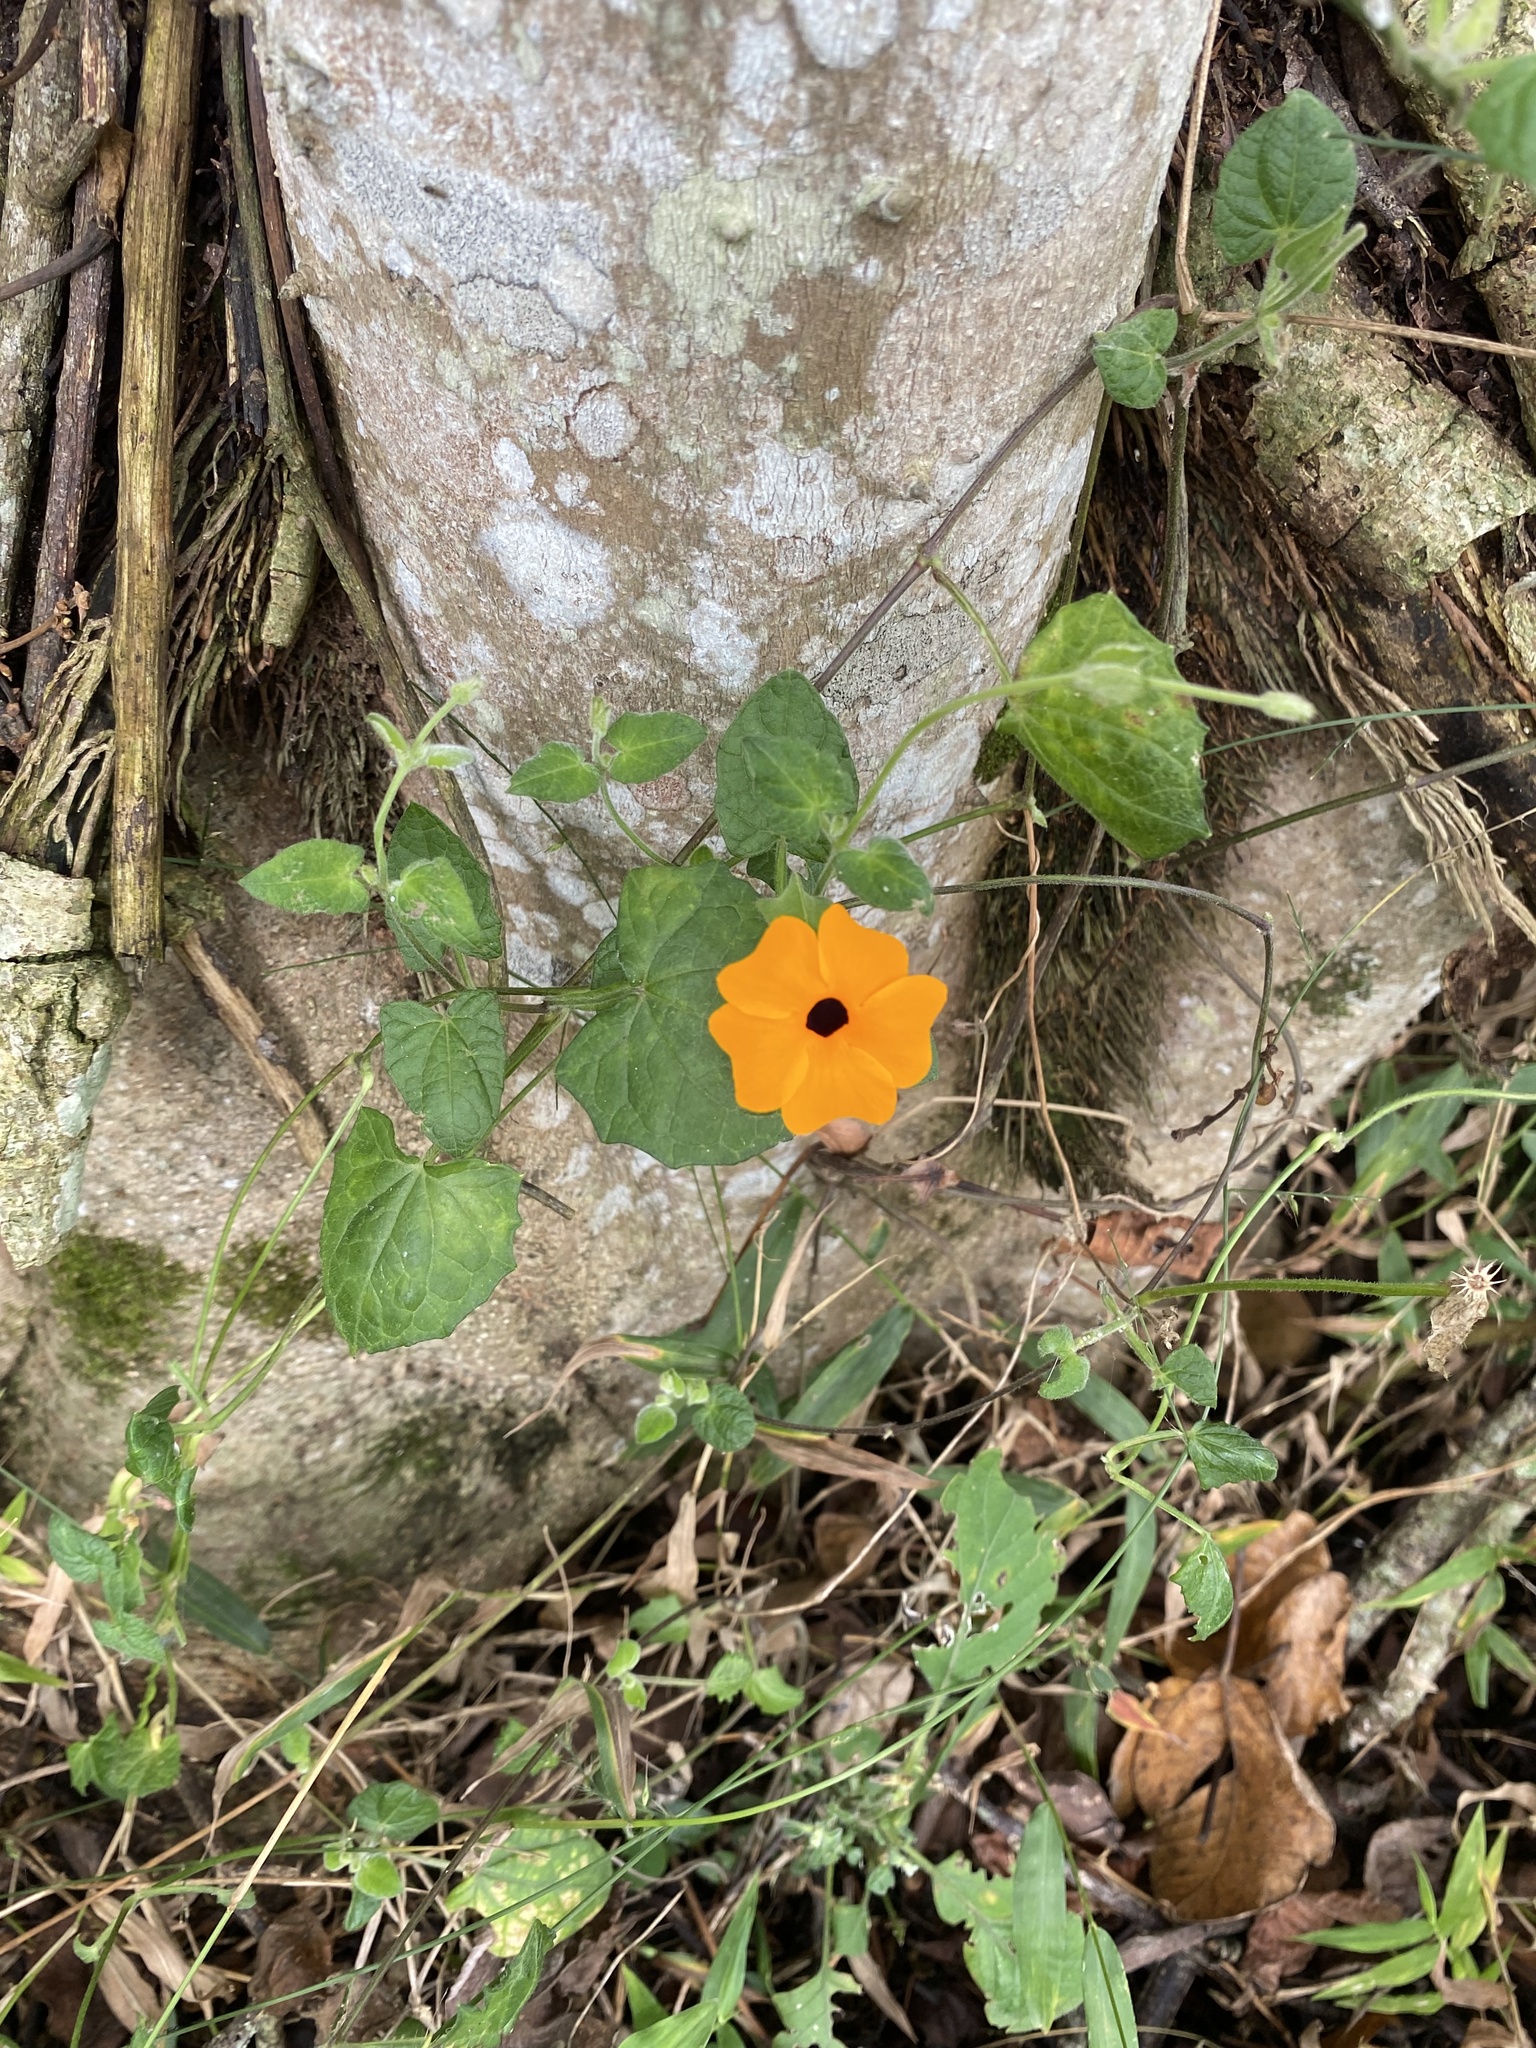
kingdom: Plantae
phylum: Tracheophyta
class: Magnoliopsida
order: Lamiales
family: Acanthaceae
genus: Thunbergia
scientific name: Thunbergia alata
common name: Blackeyed susan vine
